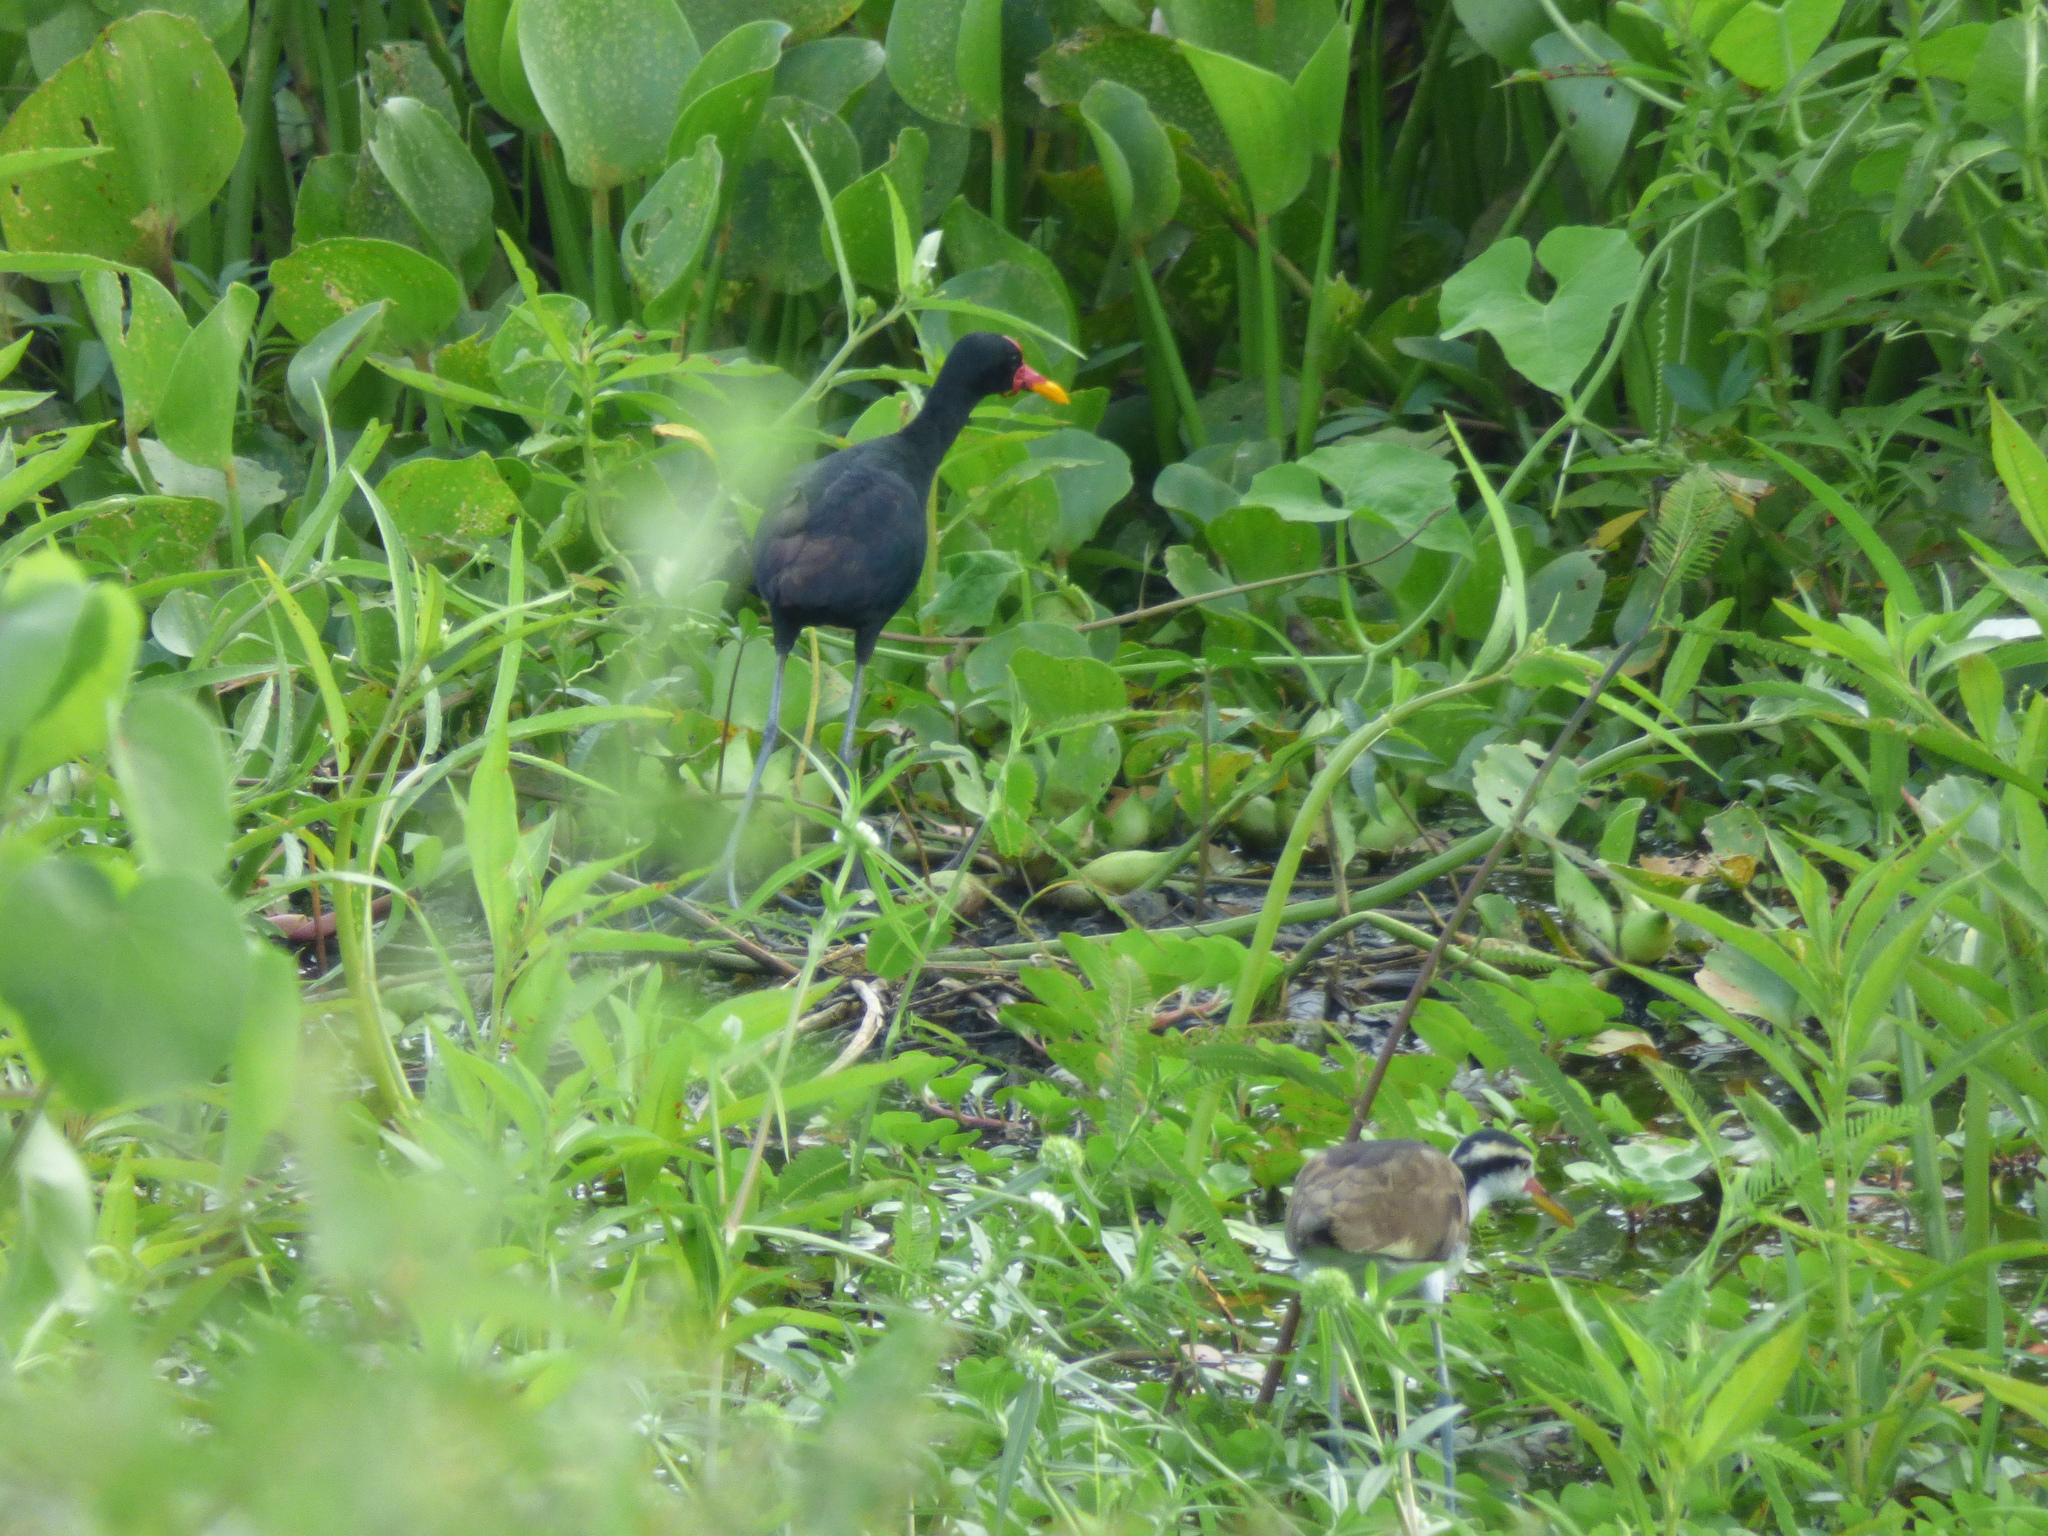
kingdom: Animalia
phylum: Chordata
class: Aves
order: Charadriiformes
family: Jacanidae
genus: Jacana
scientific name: Jacana jacana
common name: Wattled jacana
